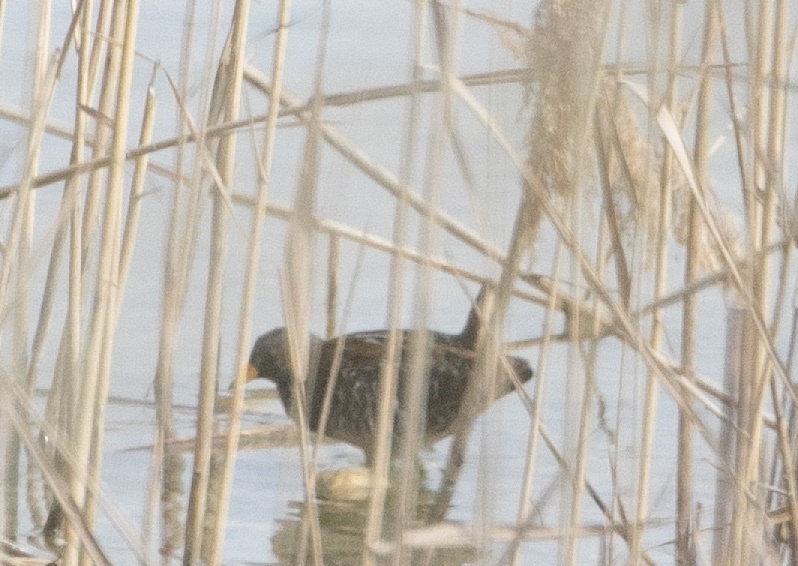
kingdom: Animalia
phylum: Chordata
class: Aves
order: Gruiformes
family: Rallidae
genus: Porzana
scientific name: Porzana porzana
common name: Spotted crake
